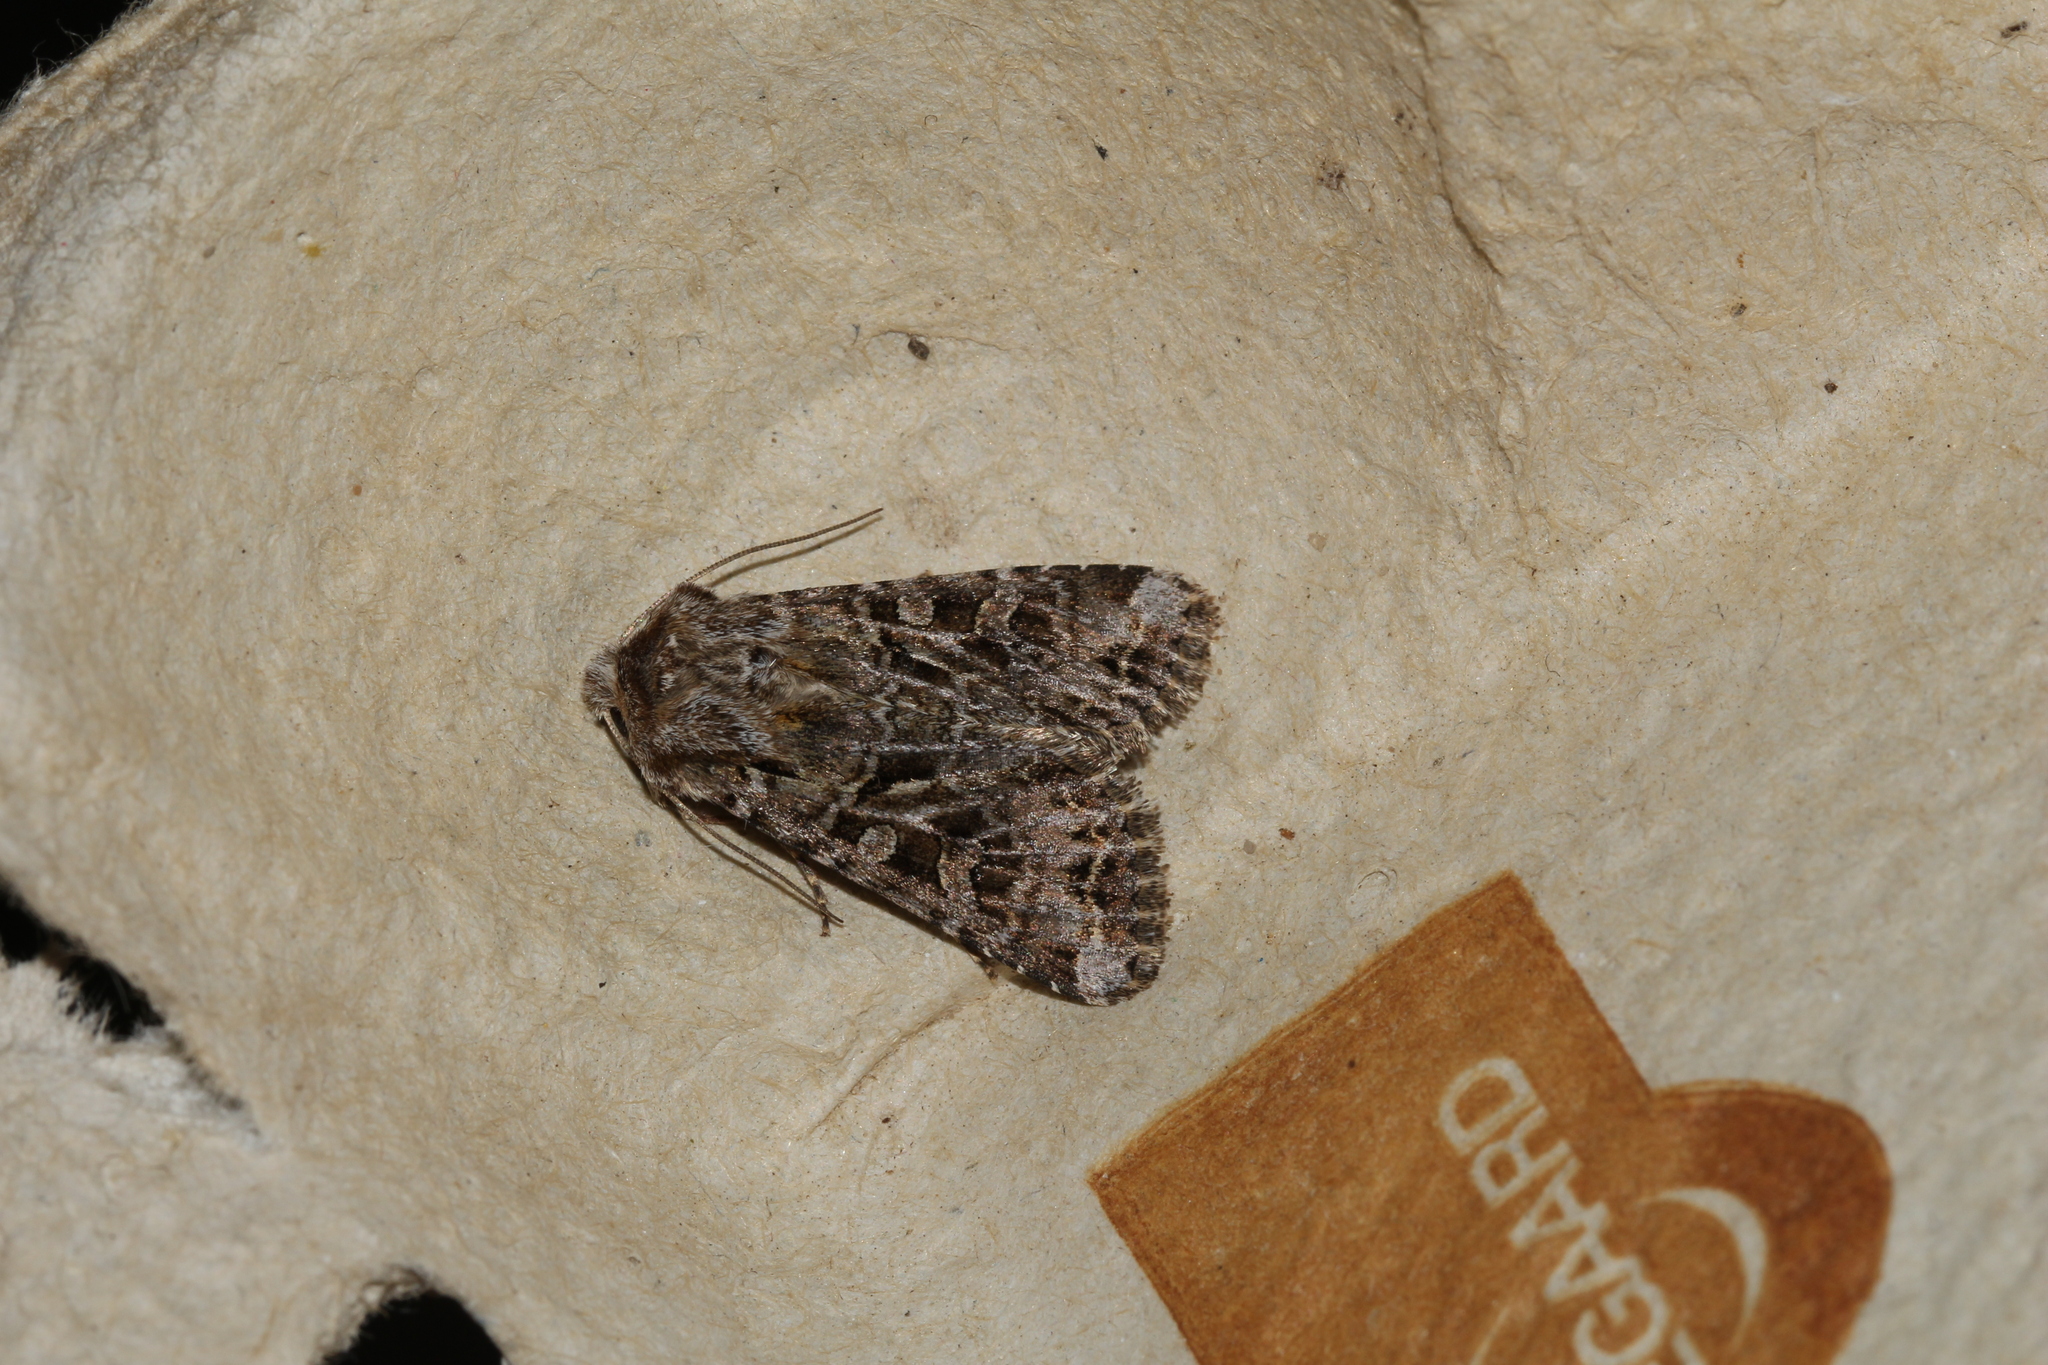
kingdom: Animalia
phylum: Arthropoda
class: Insecta
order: Lepidoptera
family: Noctuidae
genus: Hada
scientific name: Hada plebeja
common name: Shears
